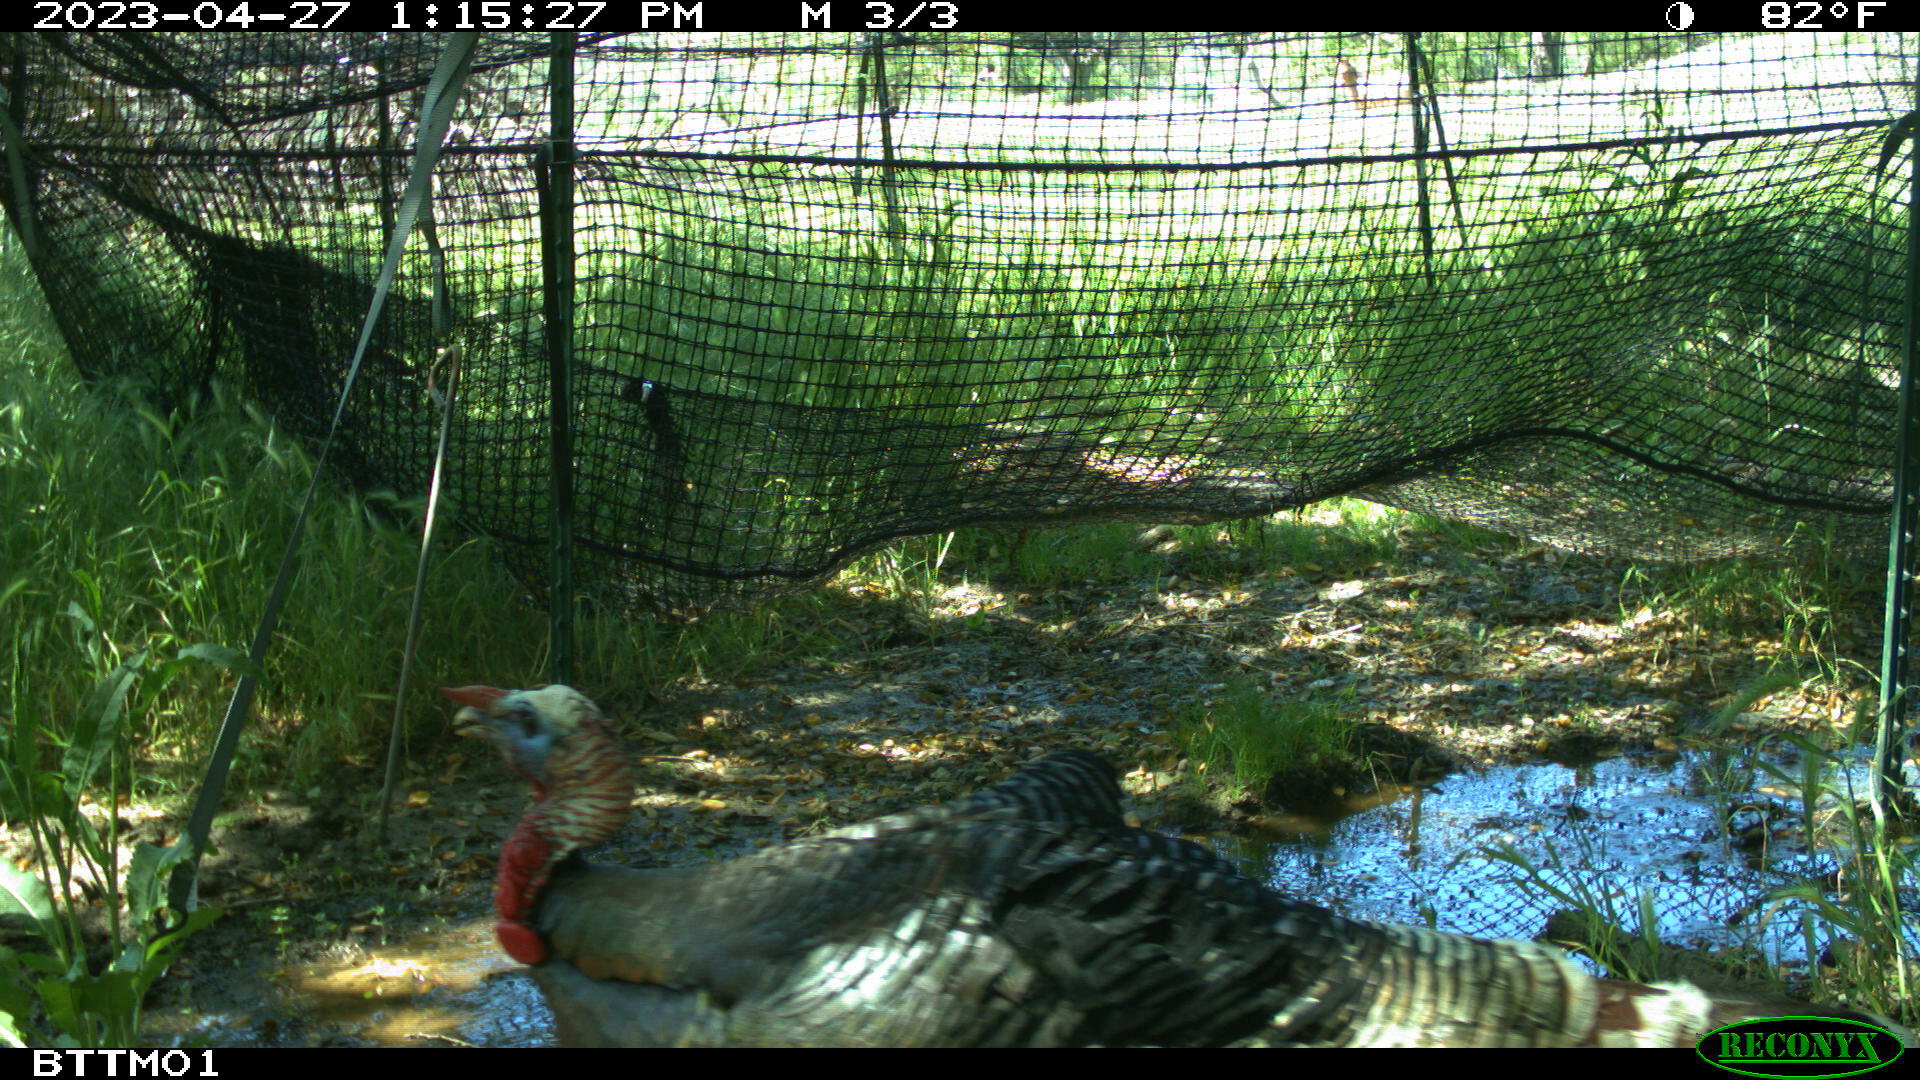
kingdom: Animalia
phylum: Chordata
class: Aves
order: Galliformes
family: Phasianidae
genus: Meleagris
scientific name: Meleagris gallopavo
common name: Wild turkey
